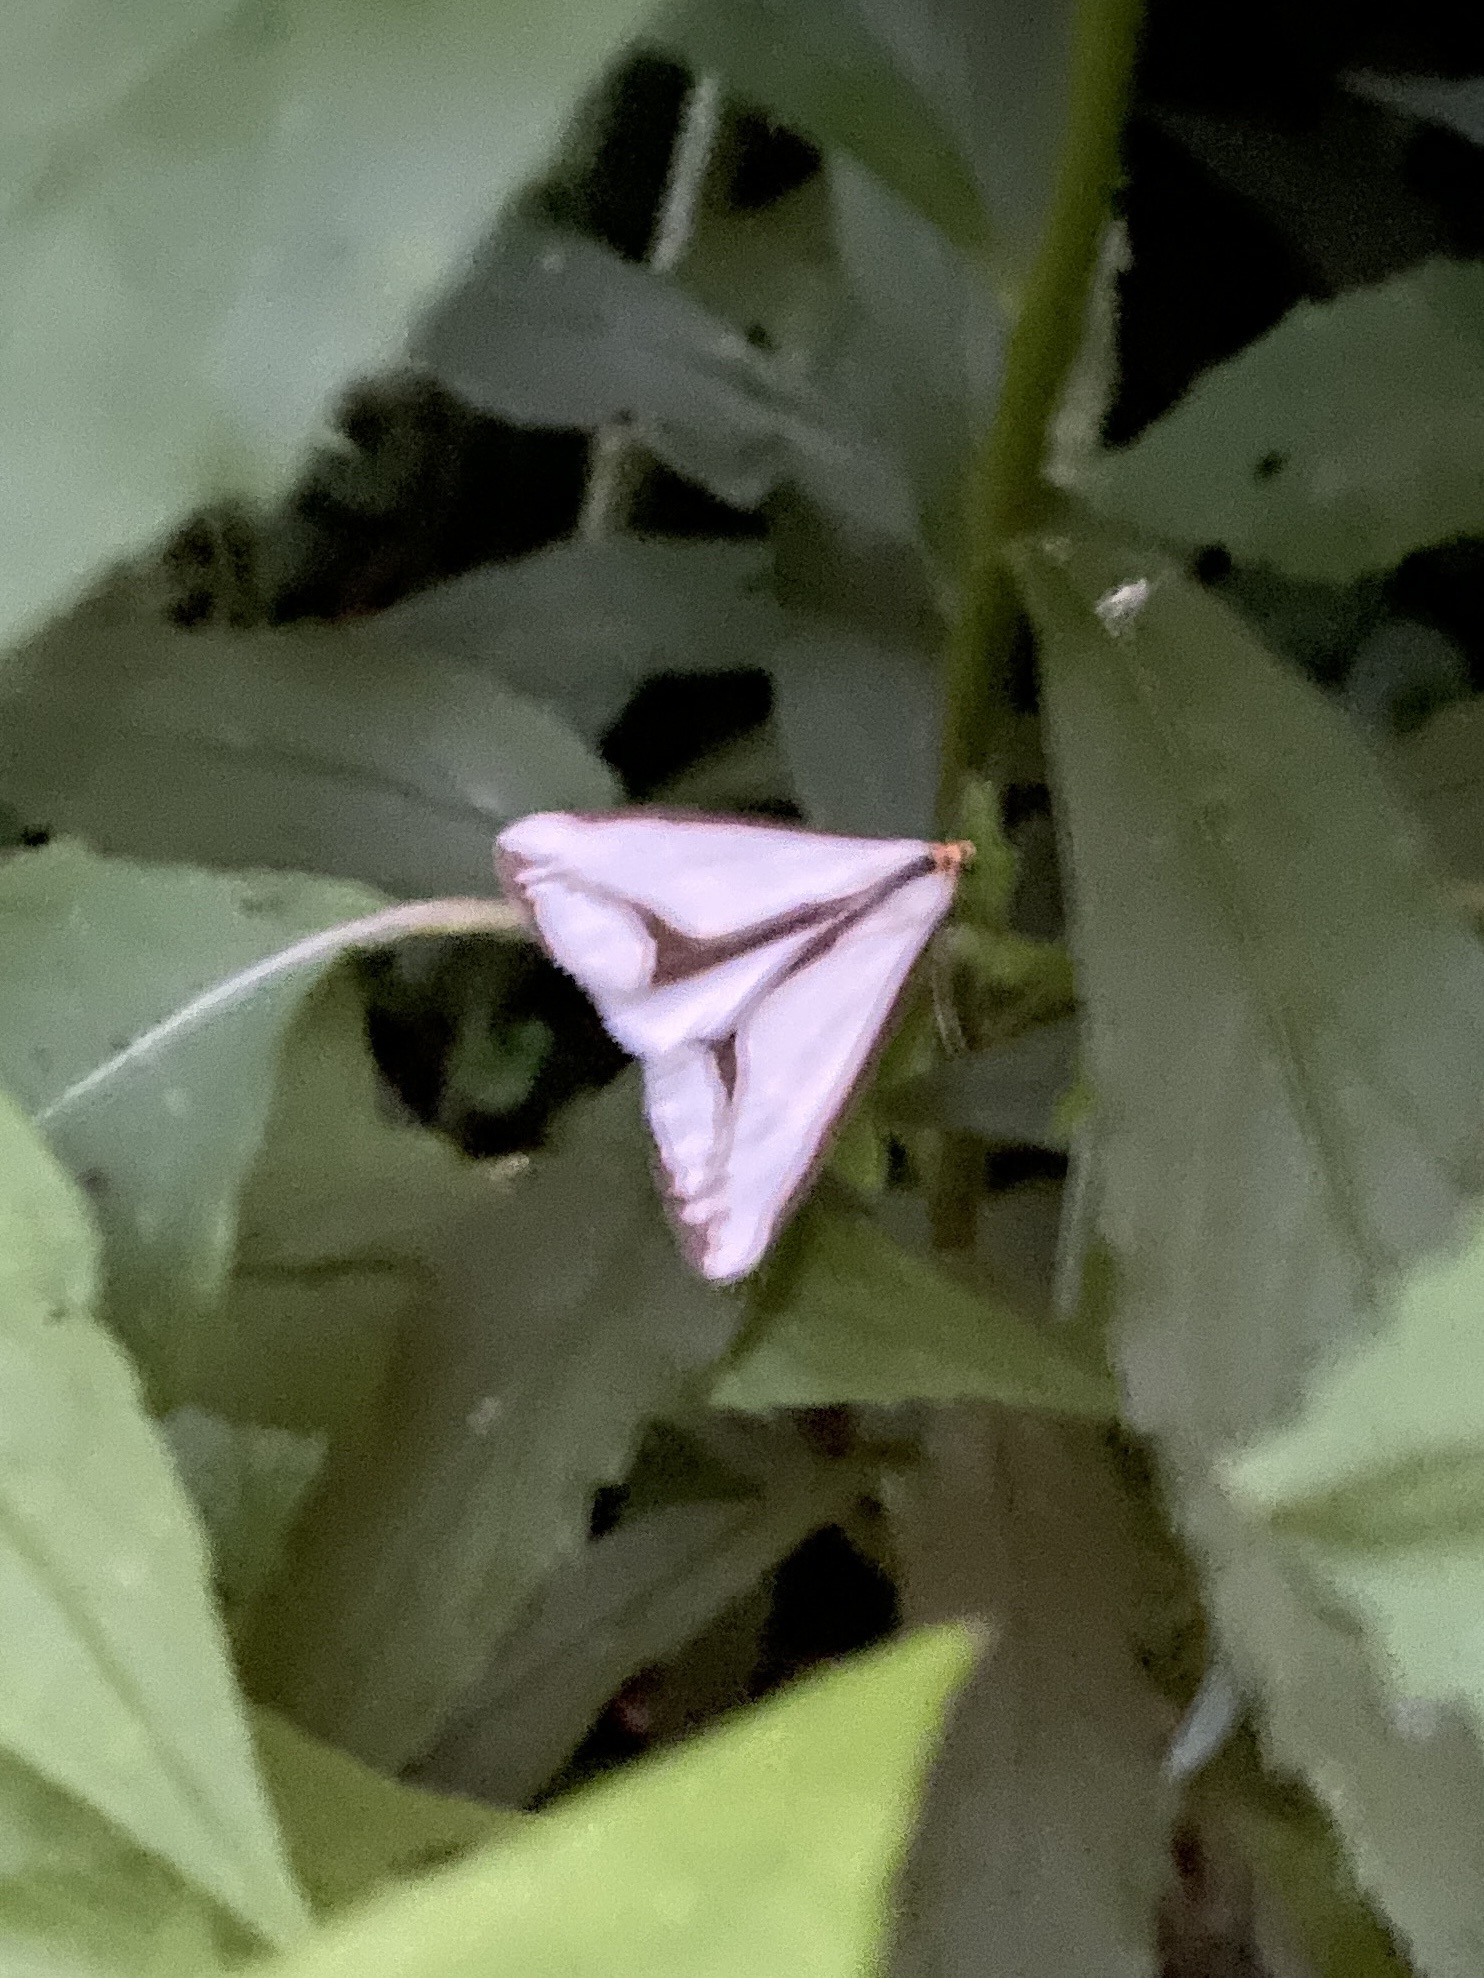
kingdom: Animalia
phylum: Arthropoda
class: Insecta
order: Lepidoptera
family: Erebidae
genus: Haploa
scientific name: Haploa lecontei
